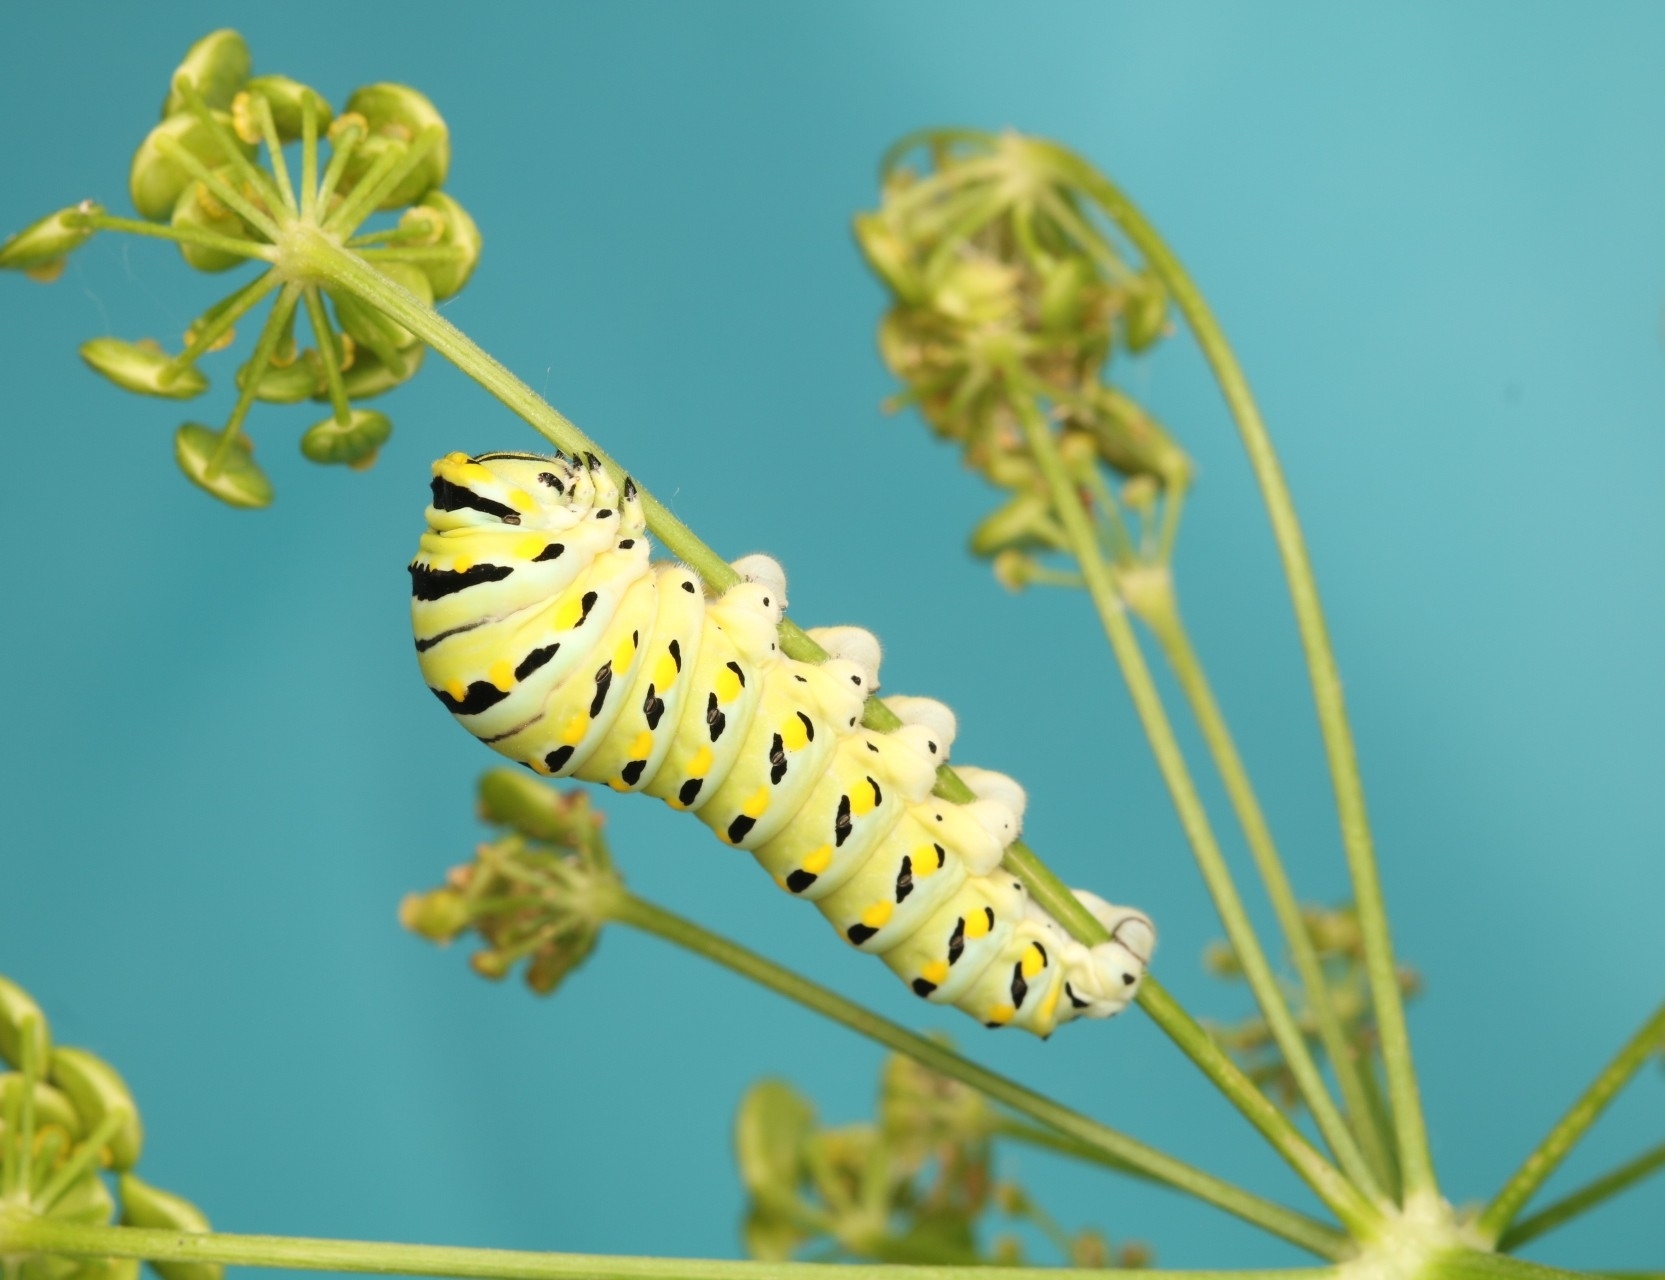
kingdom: Animalia
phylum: Arthropoda
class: Insecta
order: Lepidoptera
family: Papilionidae
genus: Papilio
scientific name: Papilio polyxenes
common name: Black swallowtail
